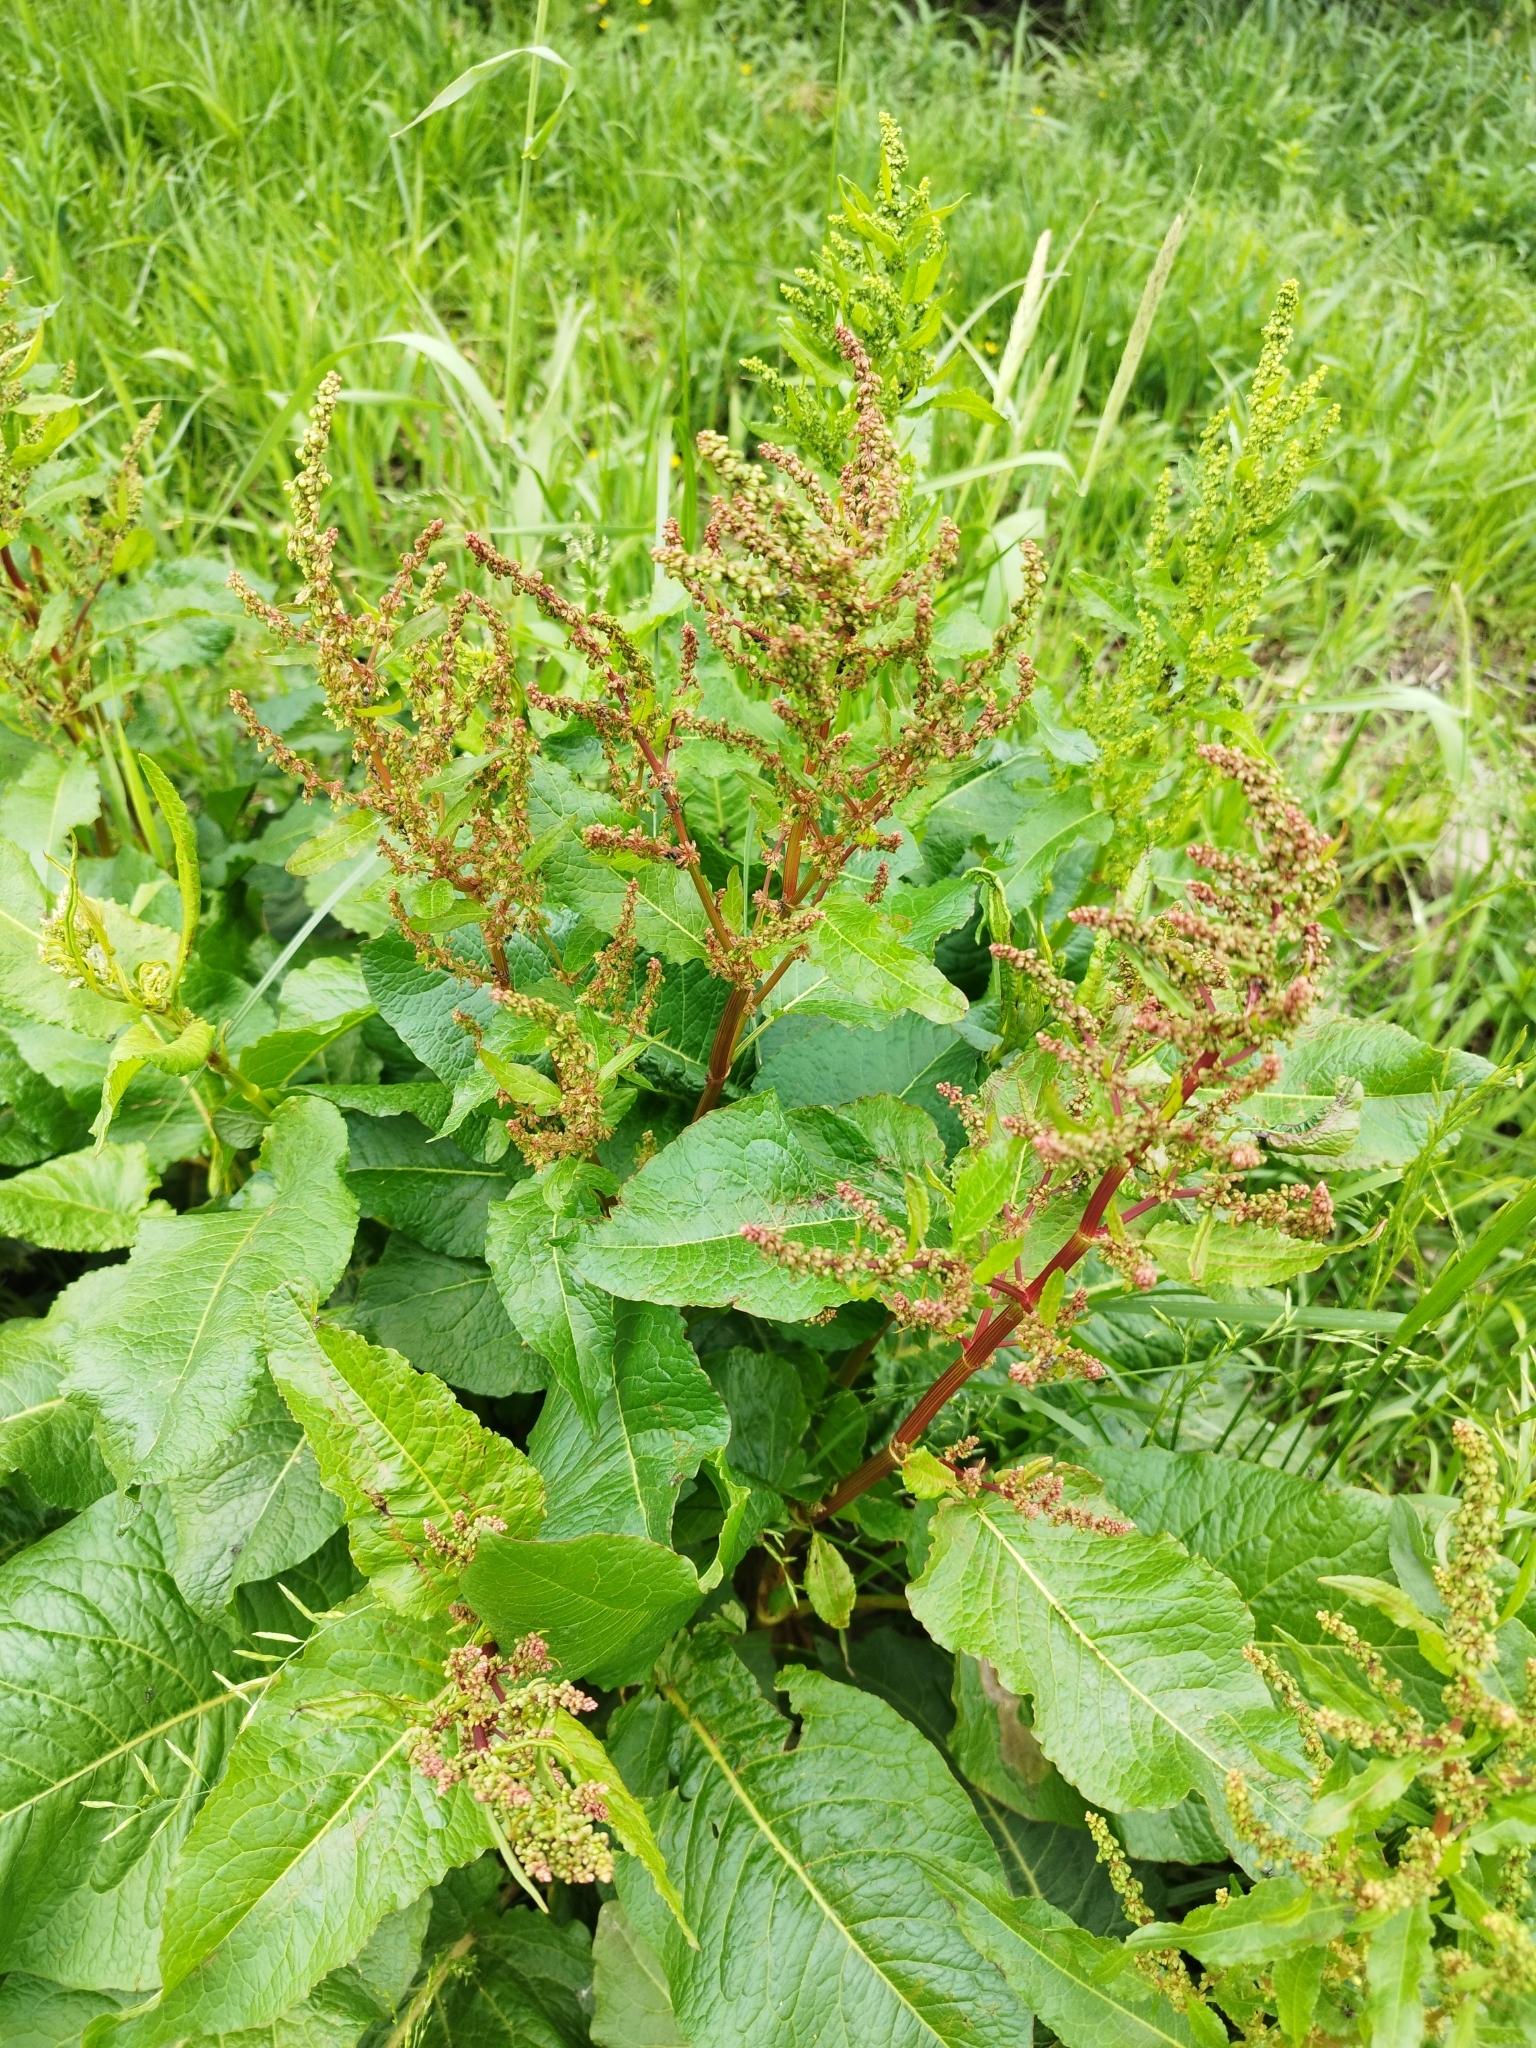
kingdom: Plantae
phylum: Tracheophyta
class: Magnoliopsida
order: Caryophyllales
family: Polygonaceae
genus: Rumex
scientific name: Rumex obtusifolius
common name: Bitter dock
